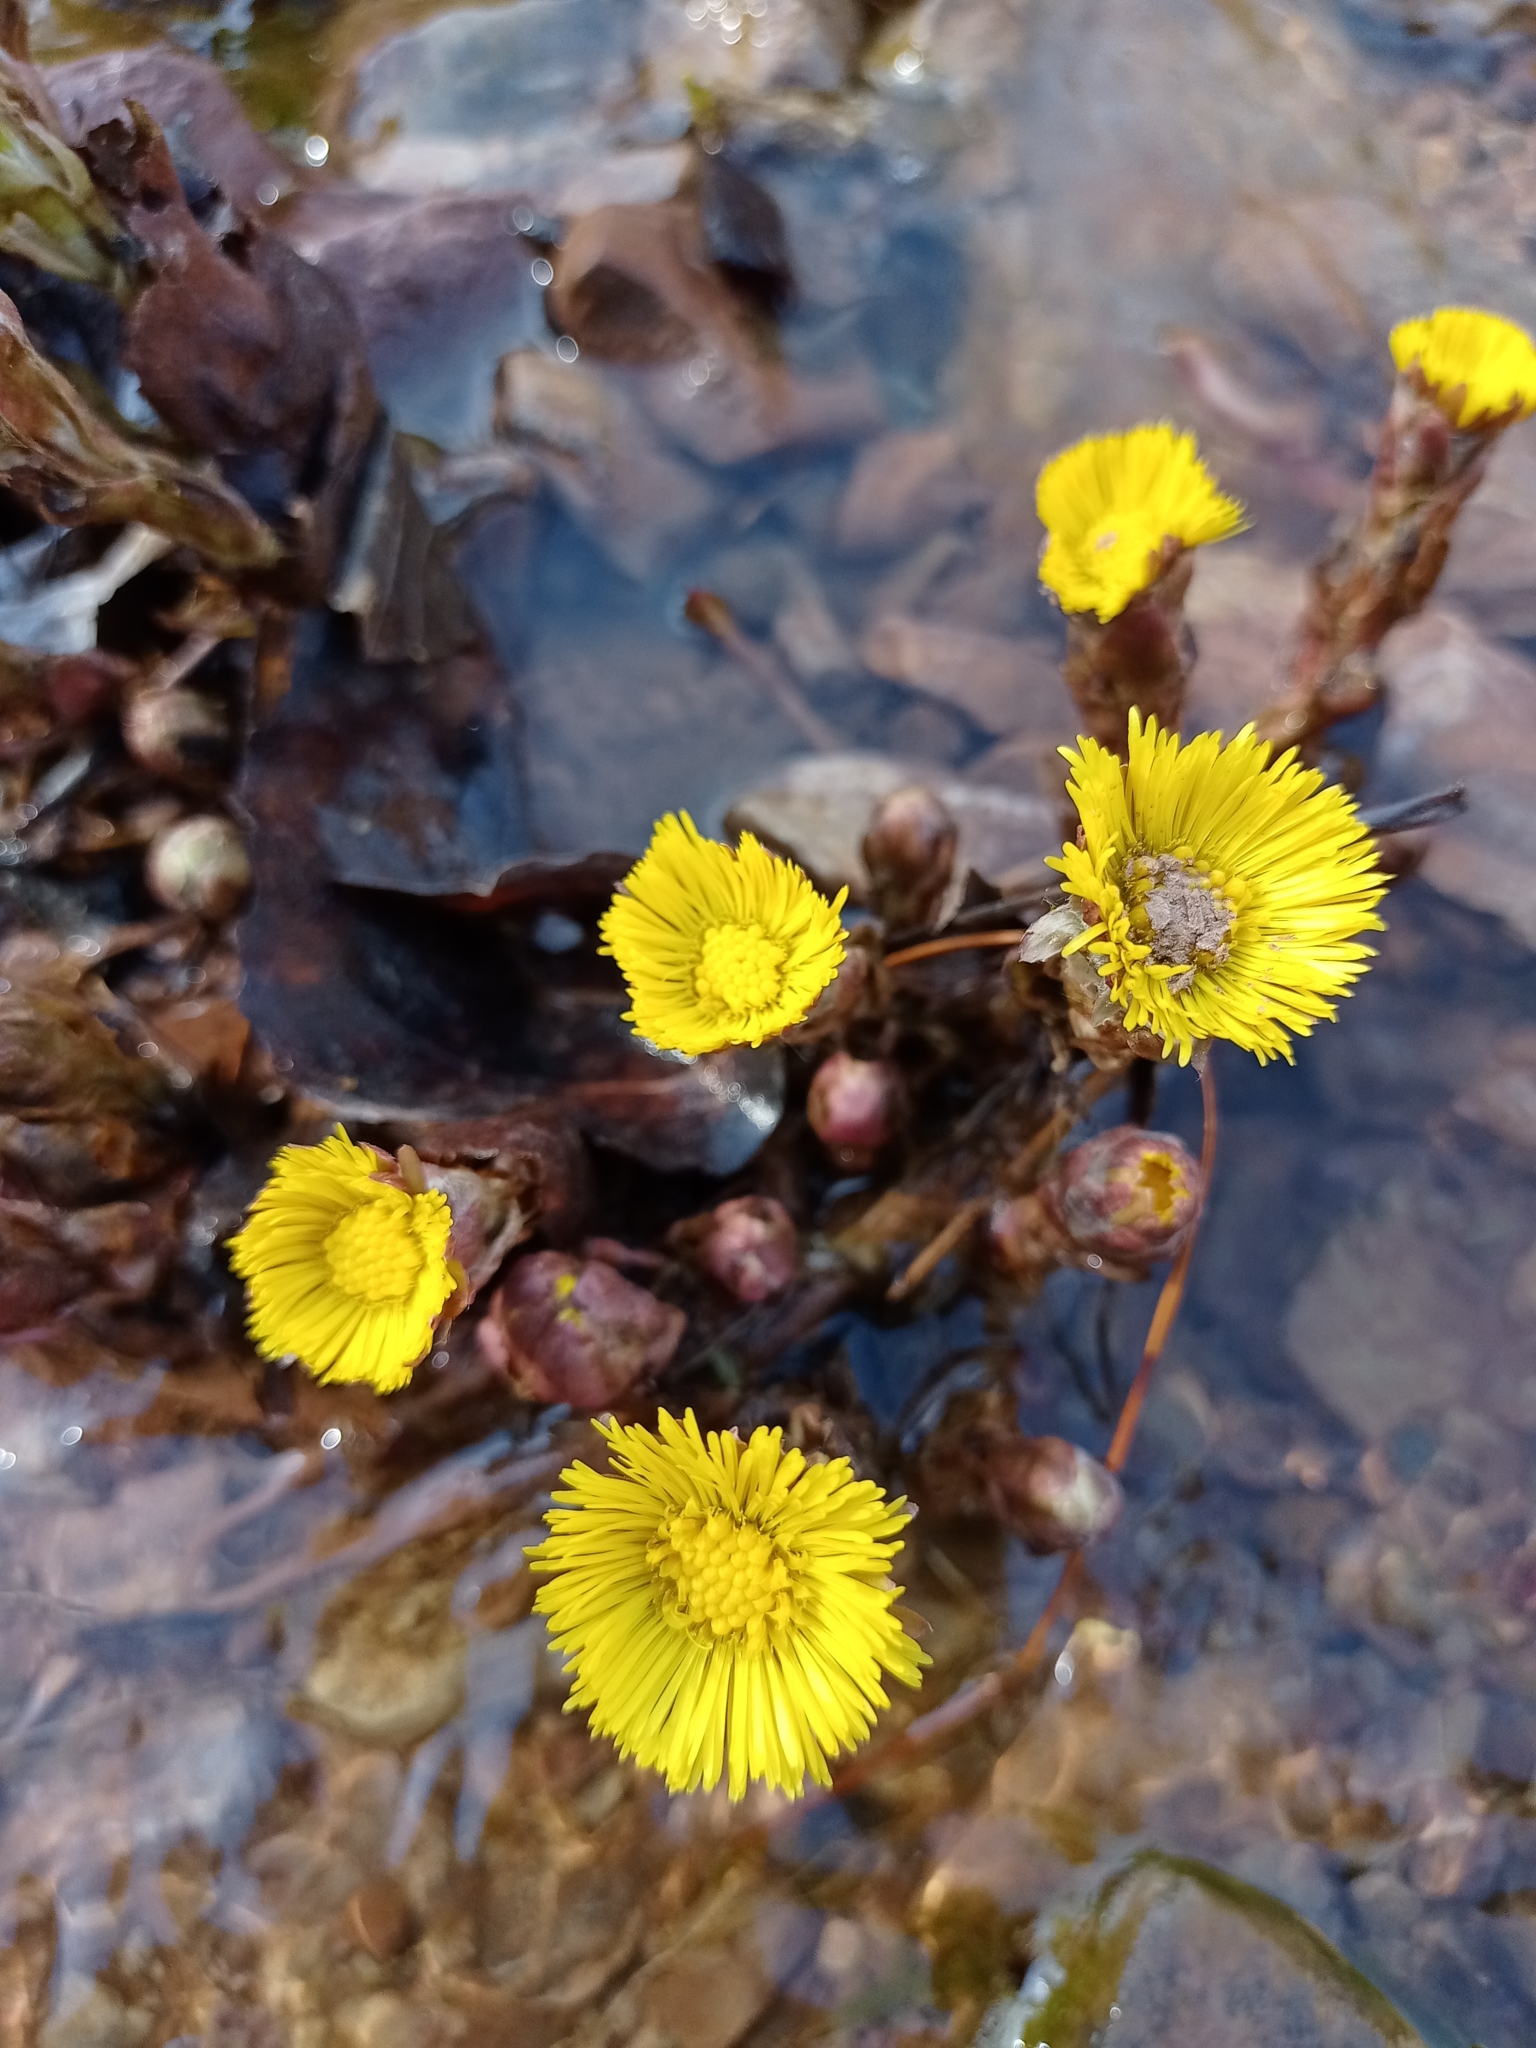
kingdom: Plantae
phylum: Tracheophyta
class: Magnoliopsida
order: Asterales
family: Asteraceae
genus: Tussilago
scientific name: Tussilago farfara
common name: Coltsfoot
